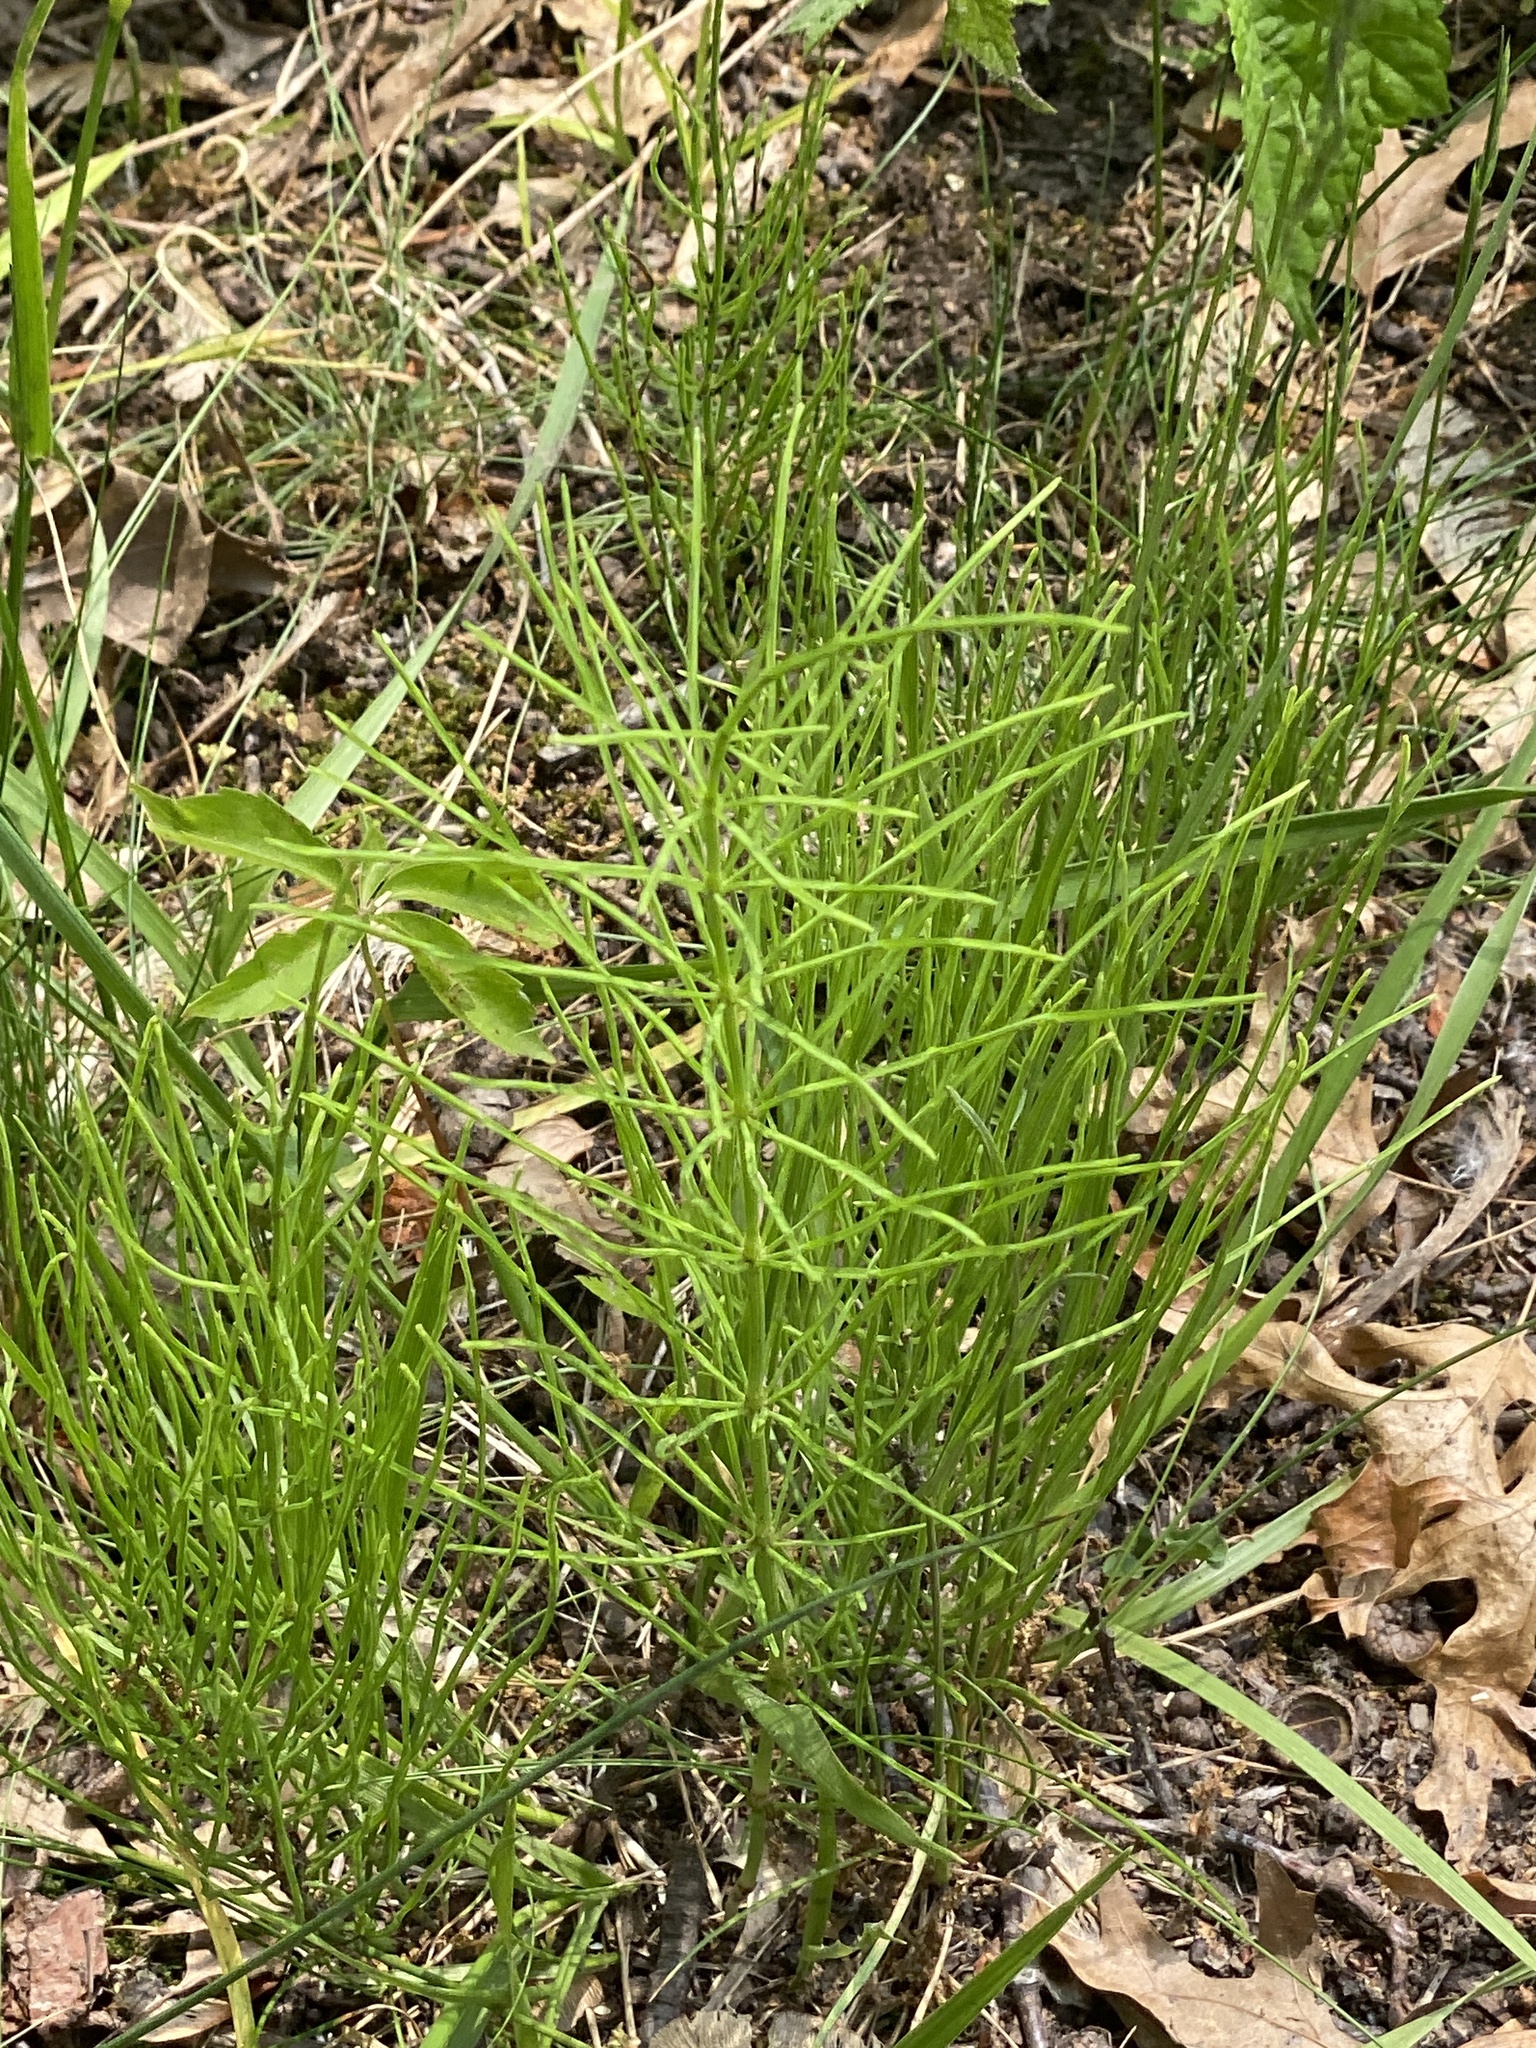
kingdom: Plantae
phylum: Tracheophyta
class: Polypodiopsida
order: Equisetales
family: Equisetaceae
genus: Equisetum
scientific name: Equisetum arvense
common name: Field horsetail
